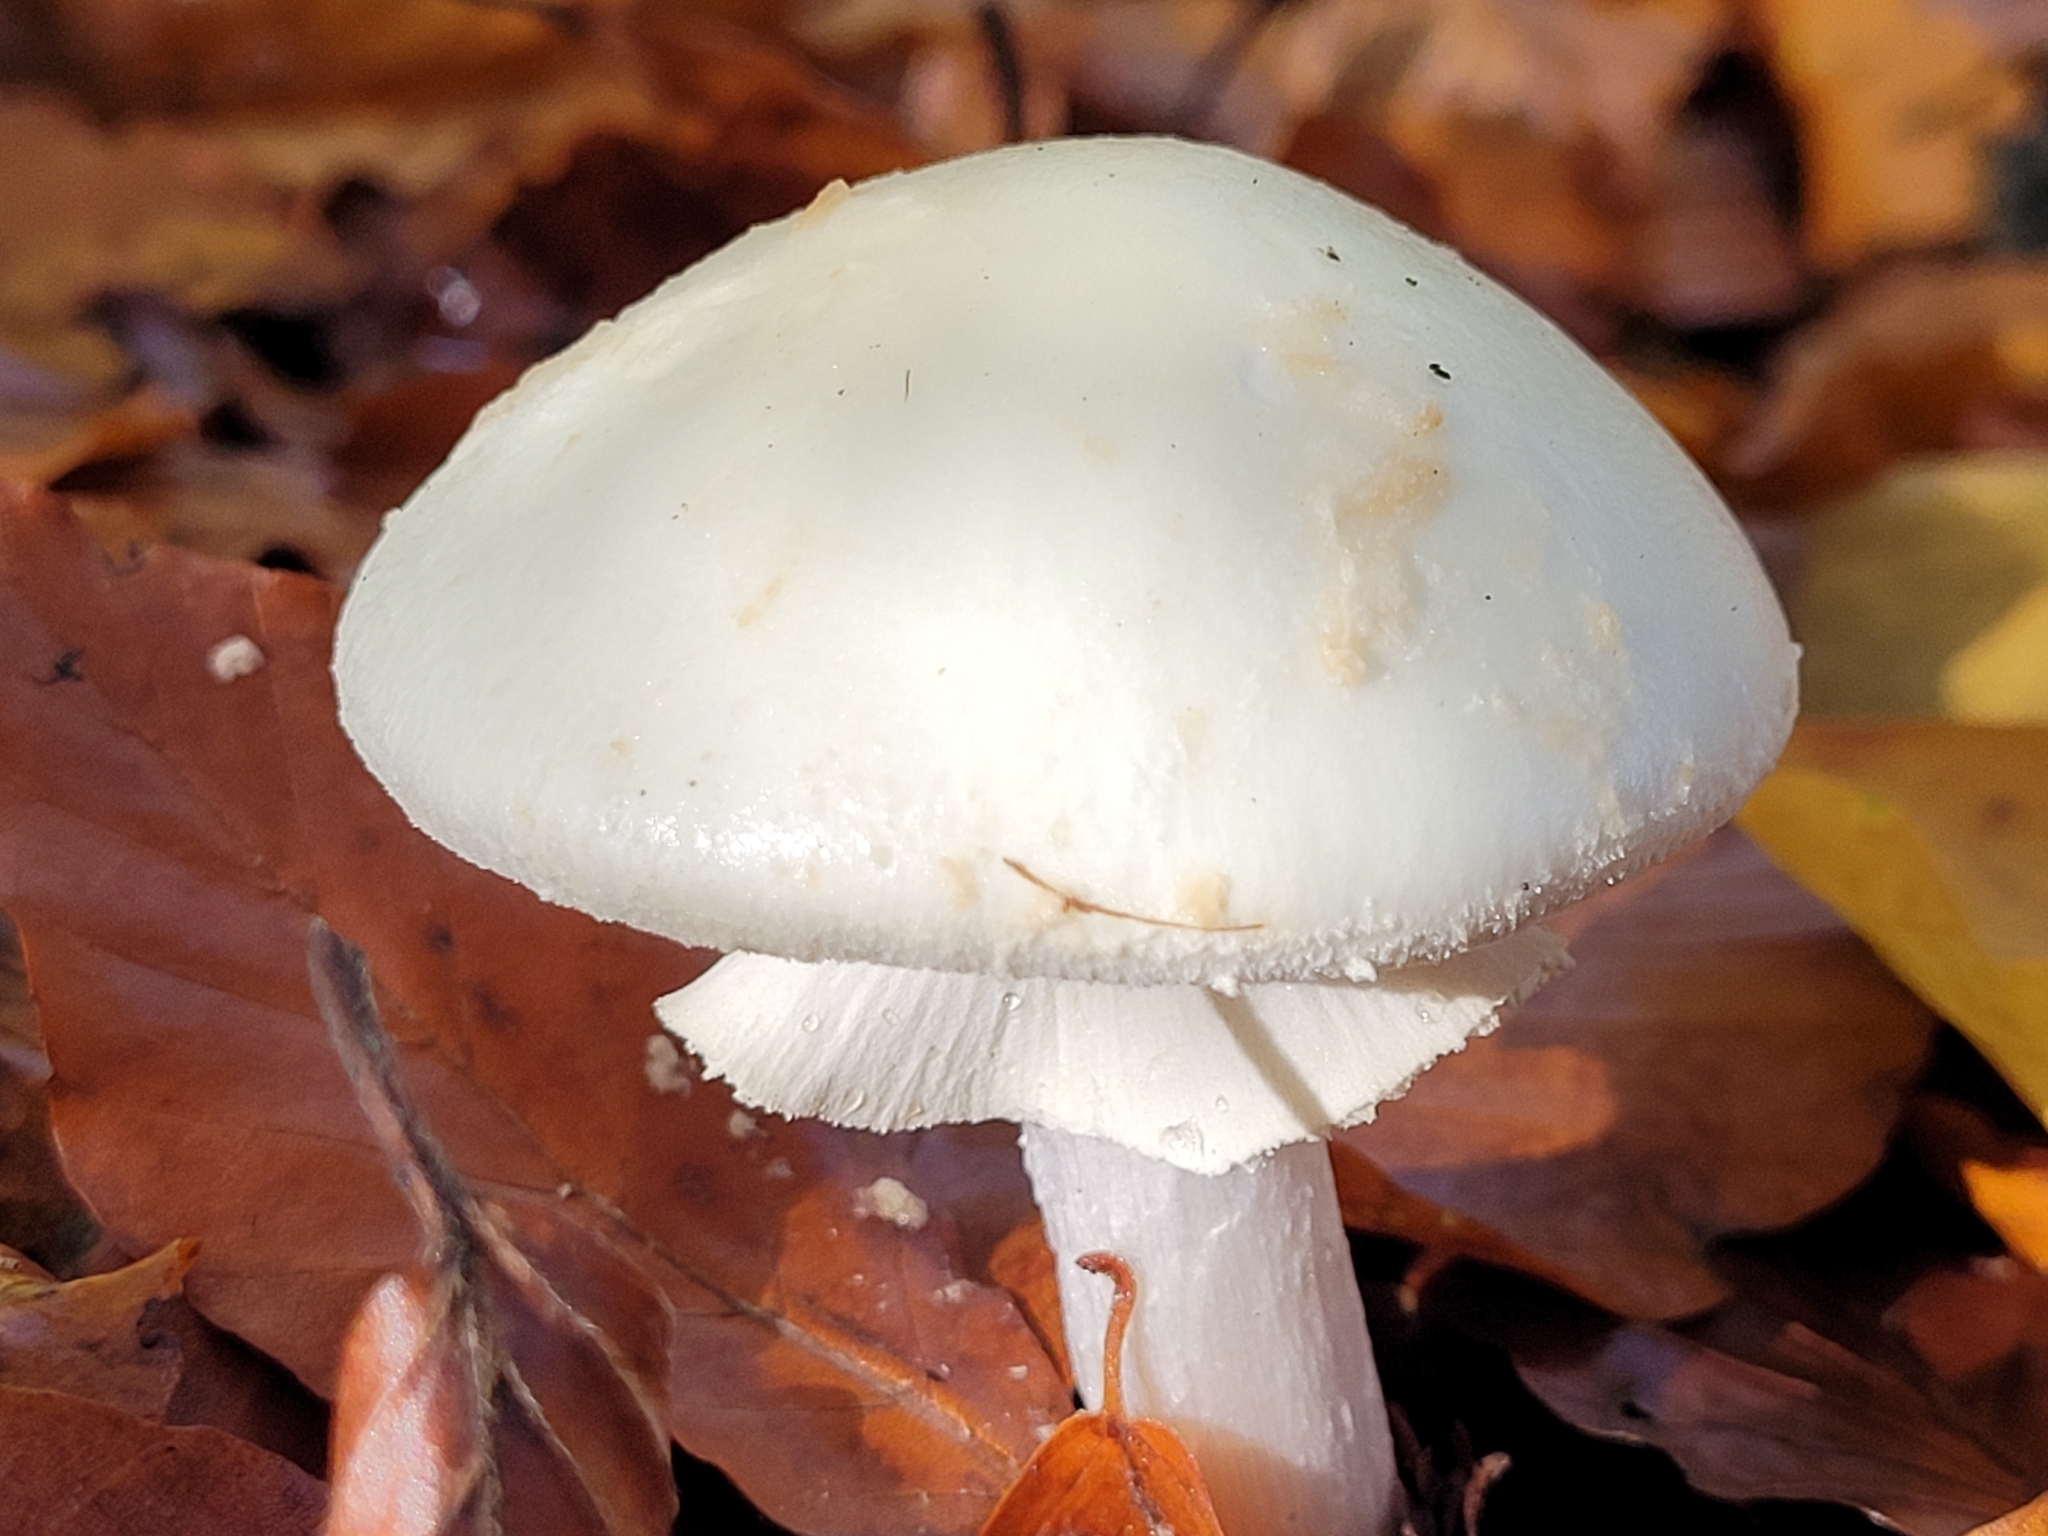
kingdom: Fungi
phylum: Basidiomycota
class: Agaricomycetes
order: Agaricales
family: Amanitaceae
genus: Amanita
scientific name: Amanita citrina
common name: False death-cap
